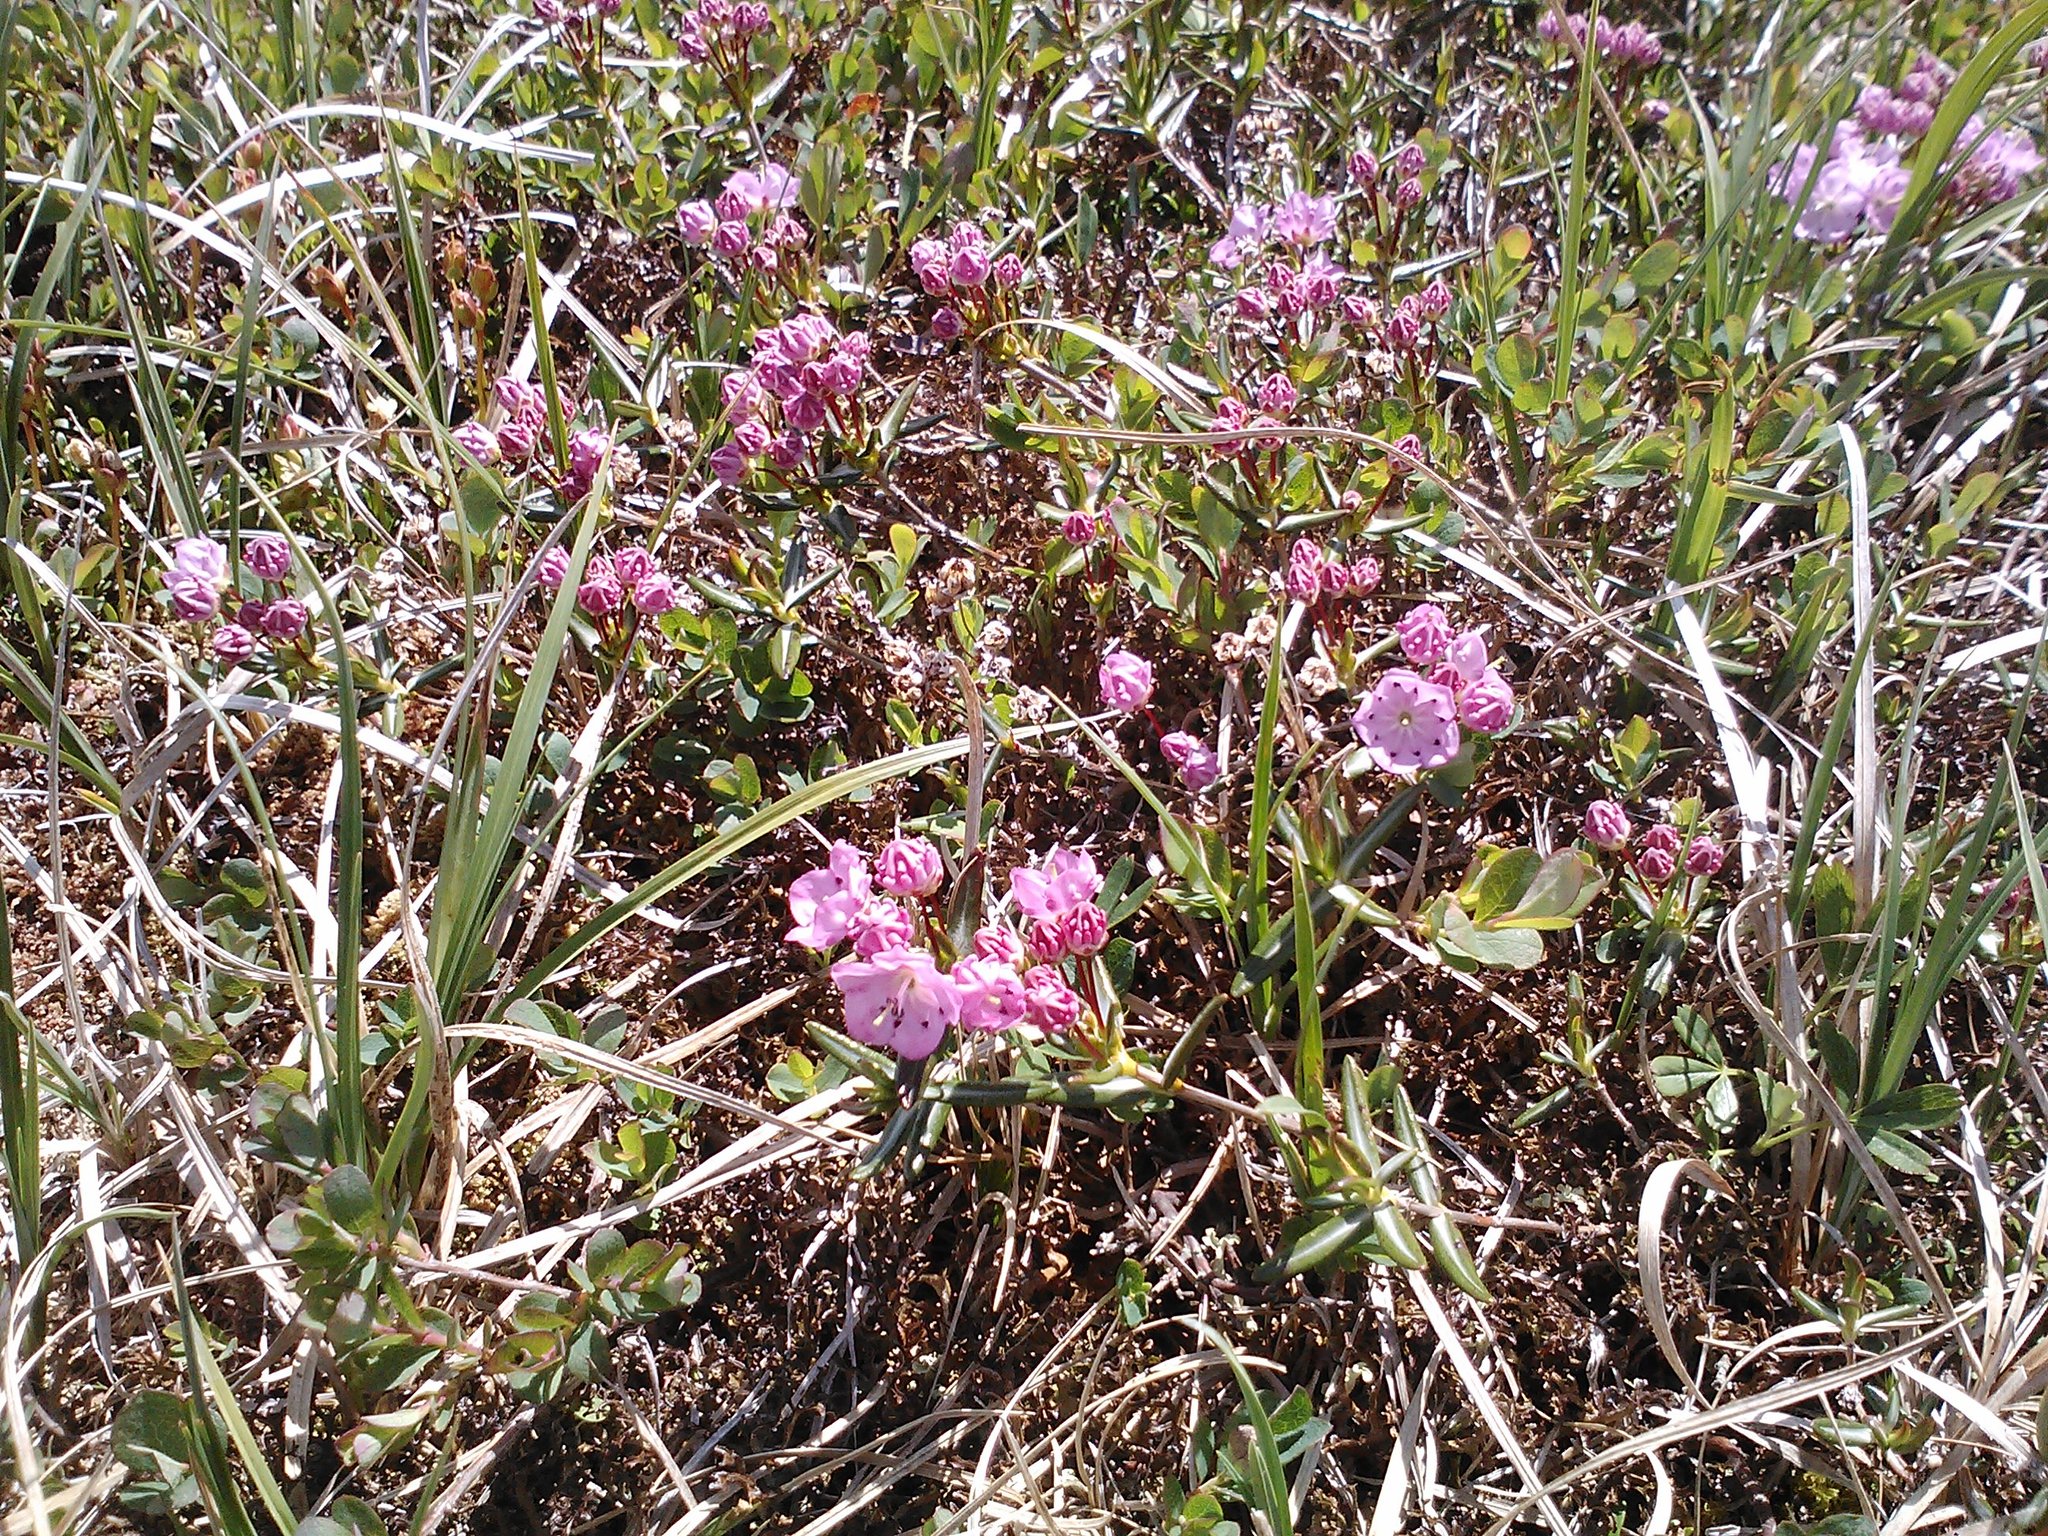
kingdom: Plantae
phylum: Tracheophyta
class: Magnoliopsida
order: Ericales
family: Ericaceae
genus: Kalmia
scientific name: Kalmia polifolia
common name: Bog-laurel
